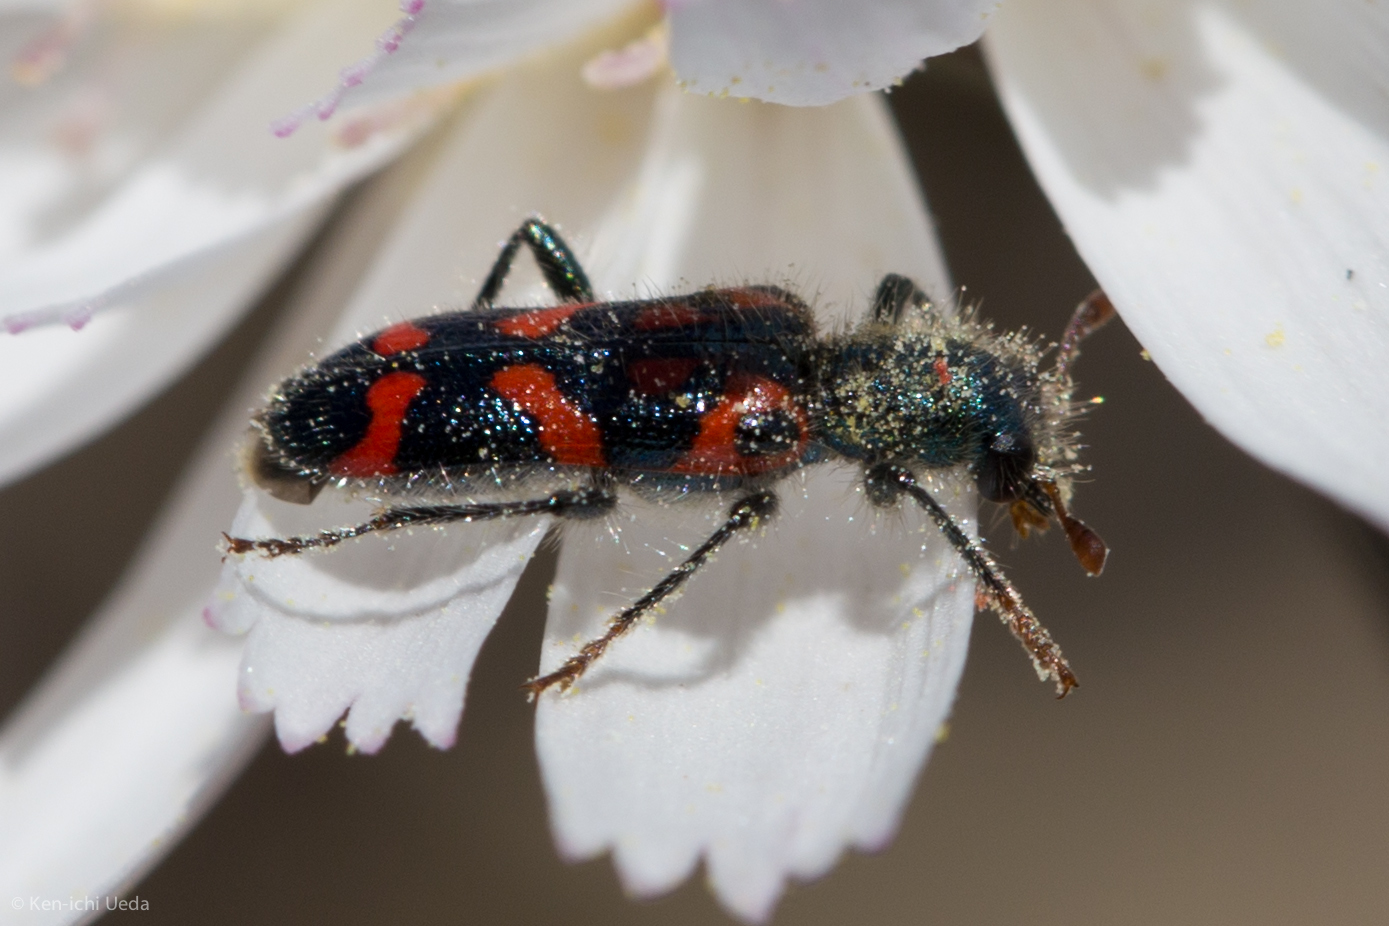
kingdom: Animalia
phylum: Arthropoda
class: Insecta
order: Coleoptera
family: Cleridae
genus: Trichodes
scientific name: Trichodes ornatus
